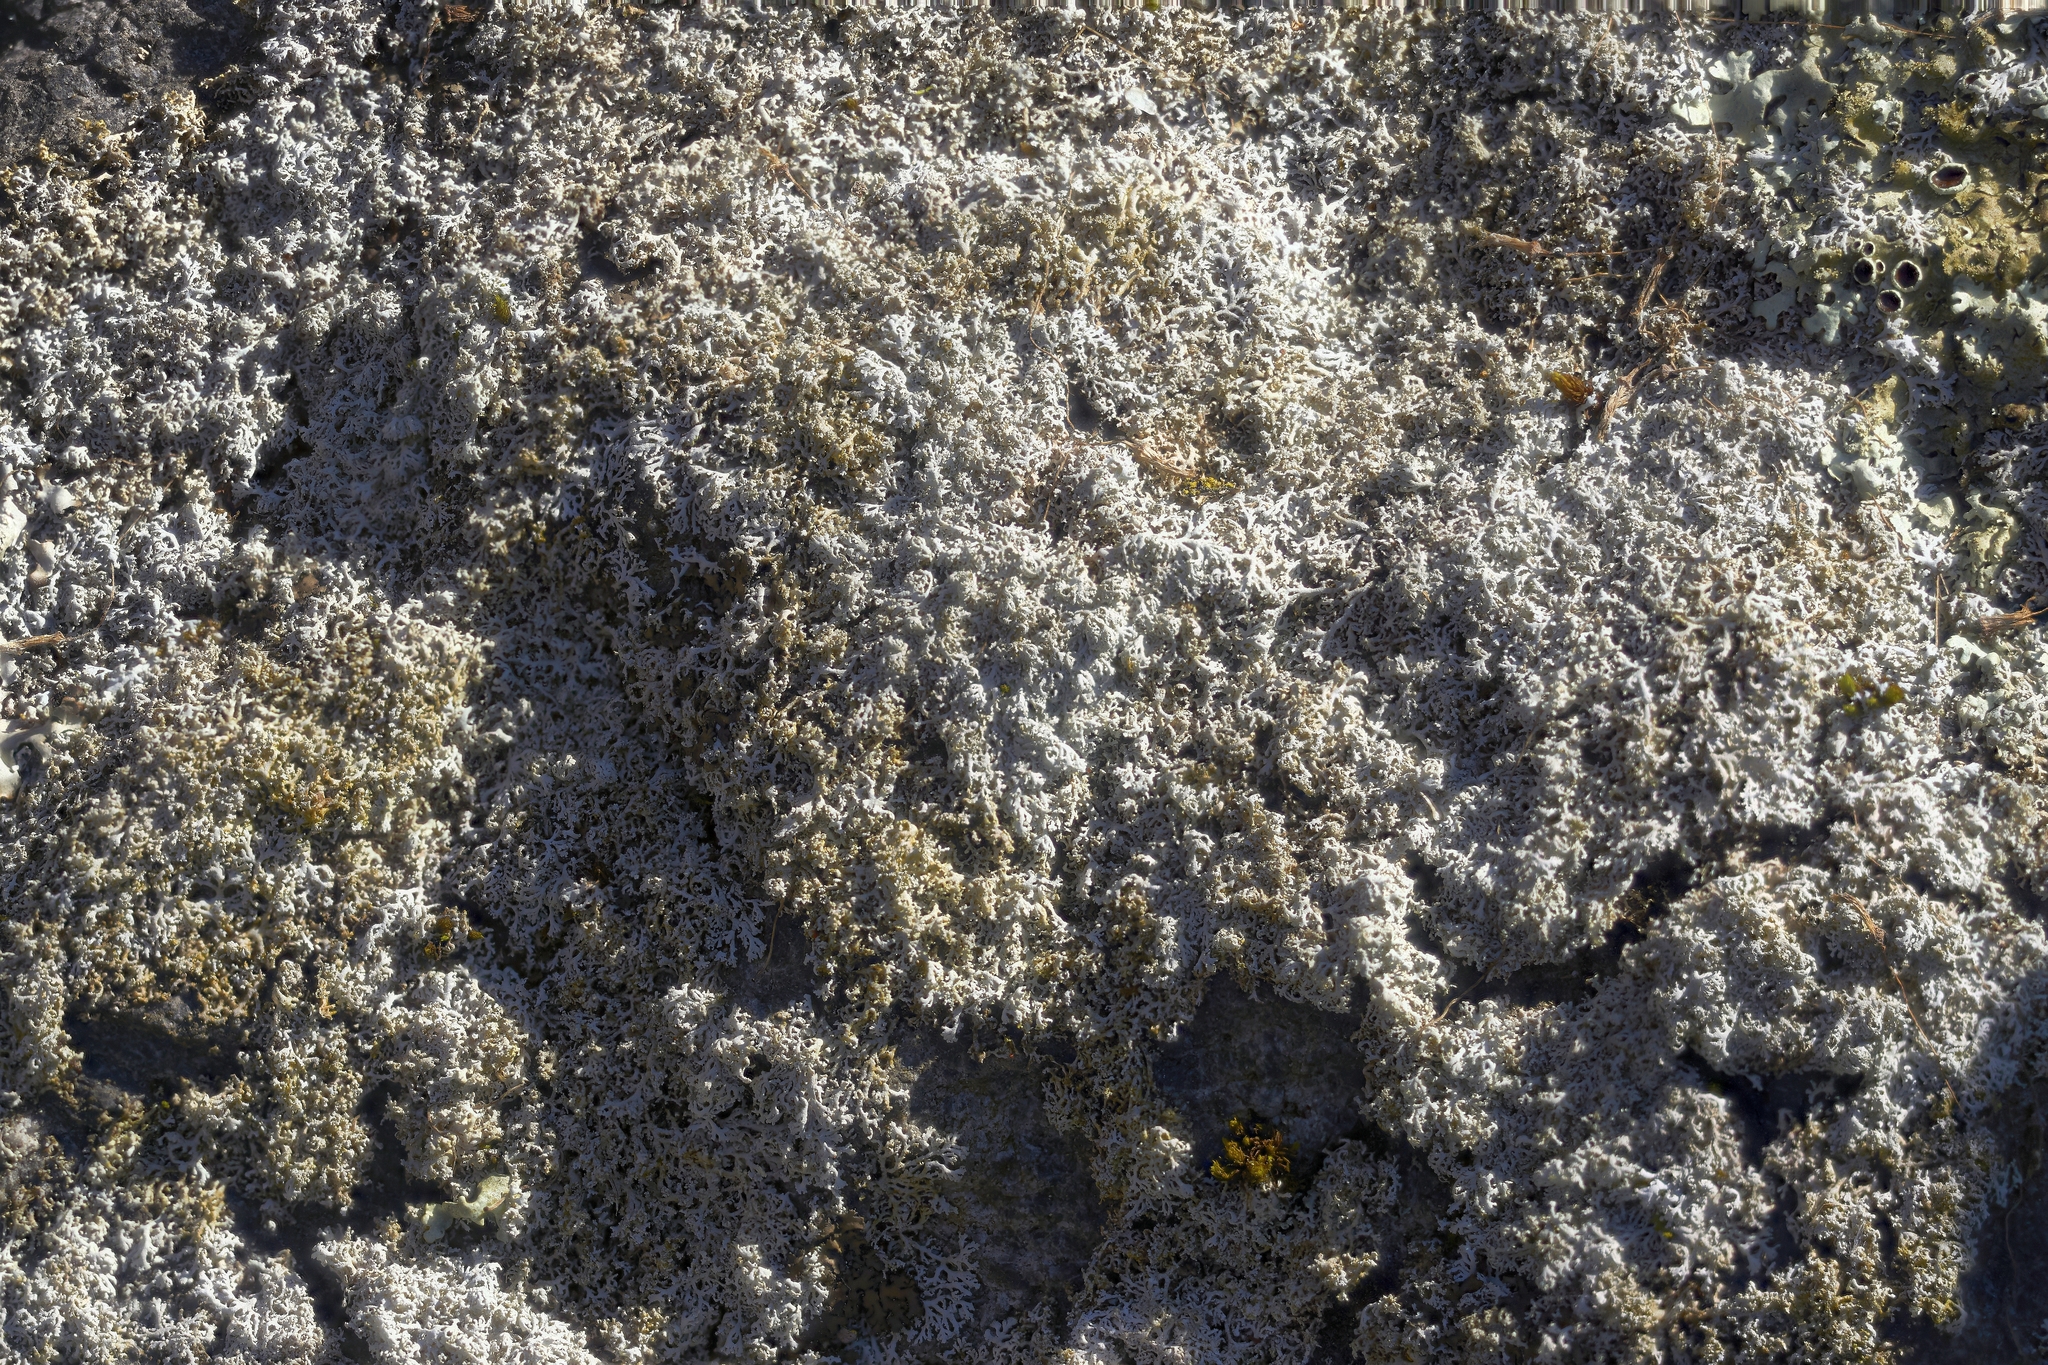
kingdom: Fungi
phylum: Ascomycota
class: Lecanoromycetes
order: Caliciales
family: Physciaceae
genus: Physcia
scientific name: Physcia thomsoniana
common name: Thomson's rosette lichen
